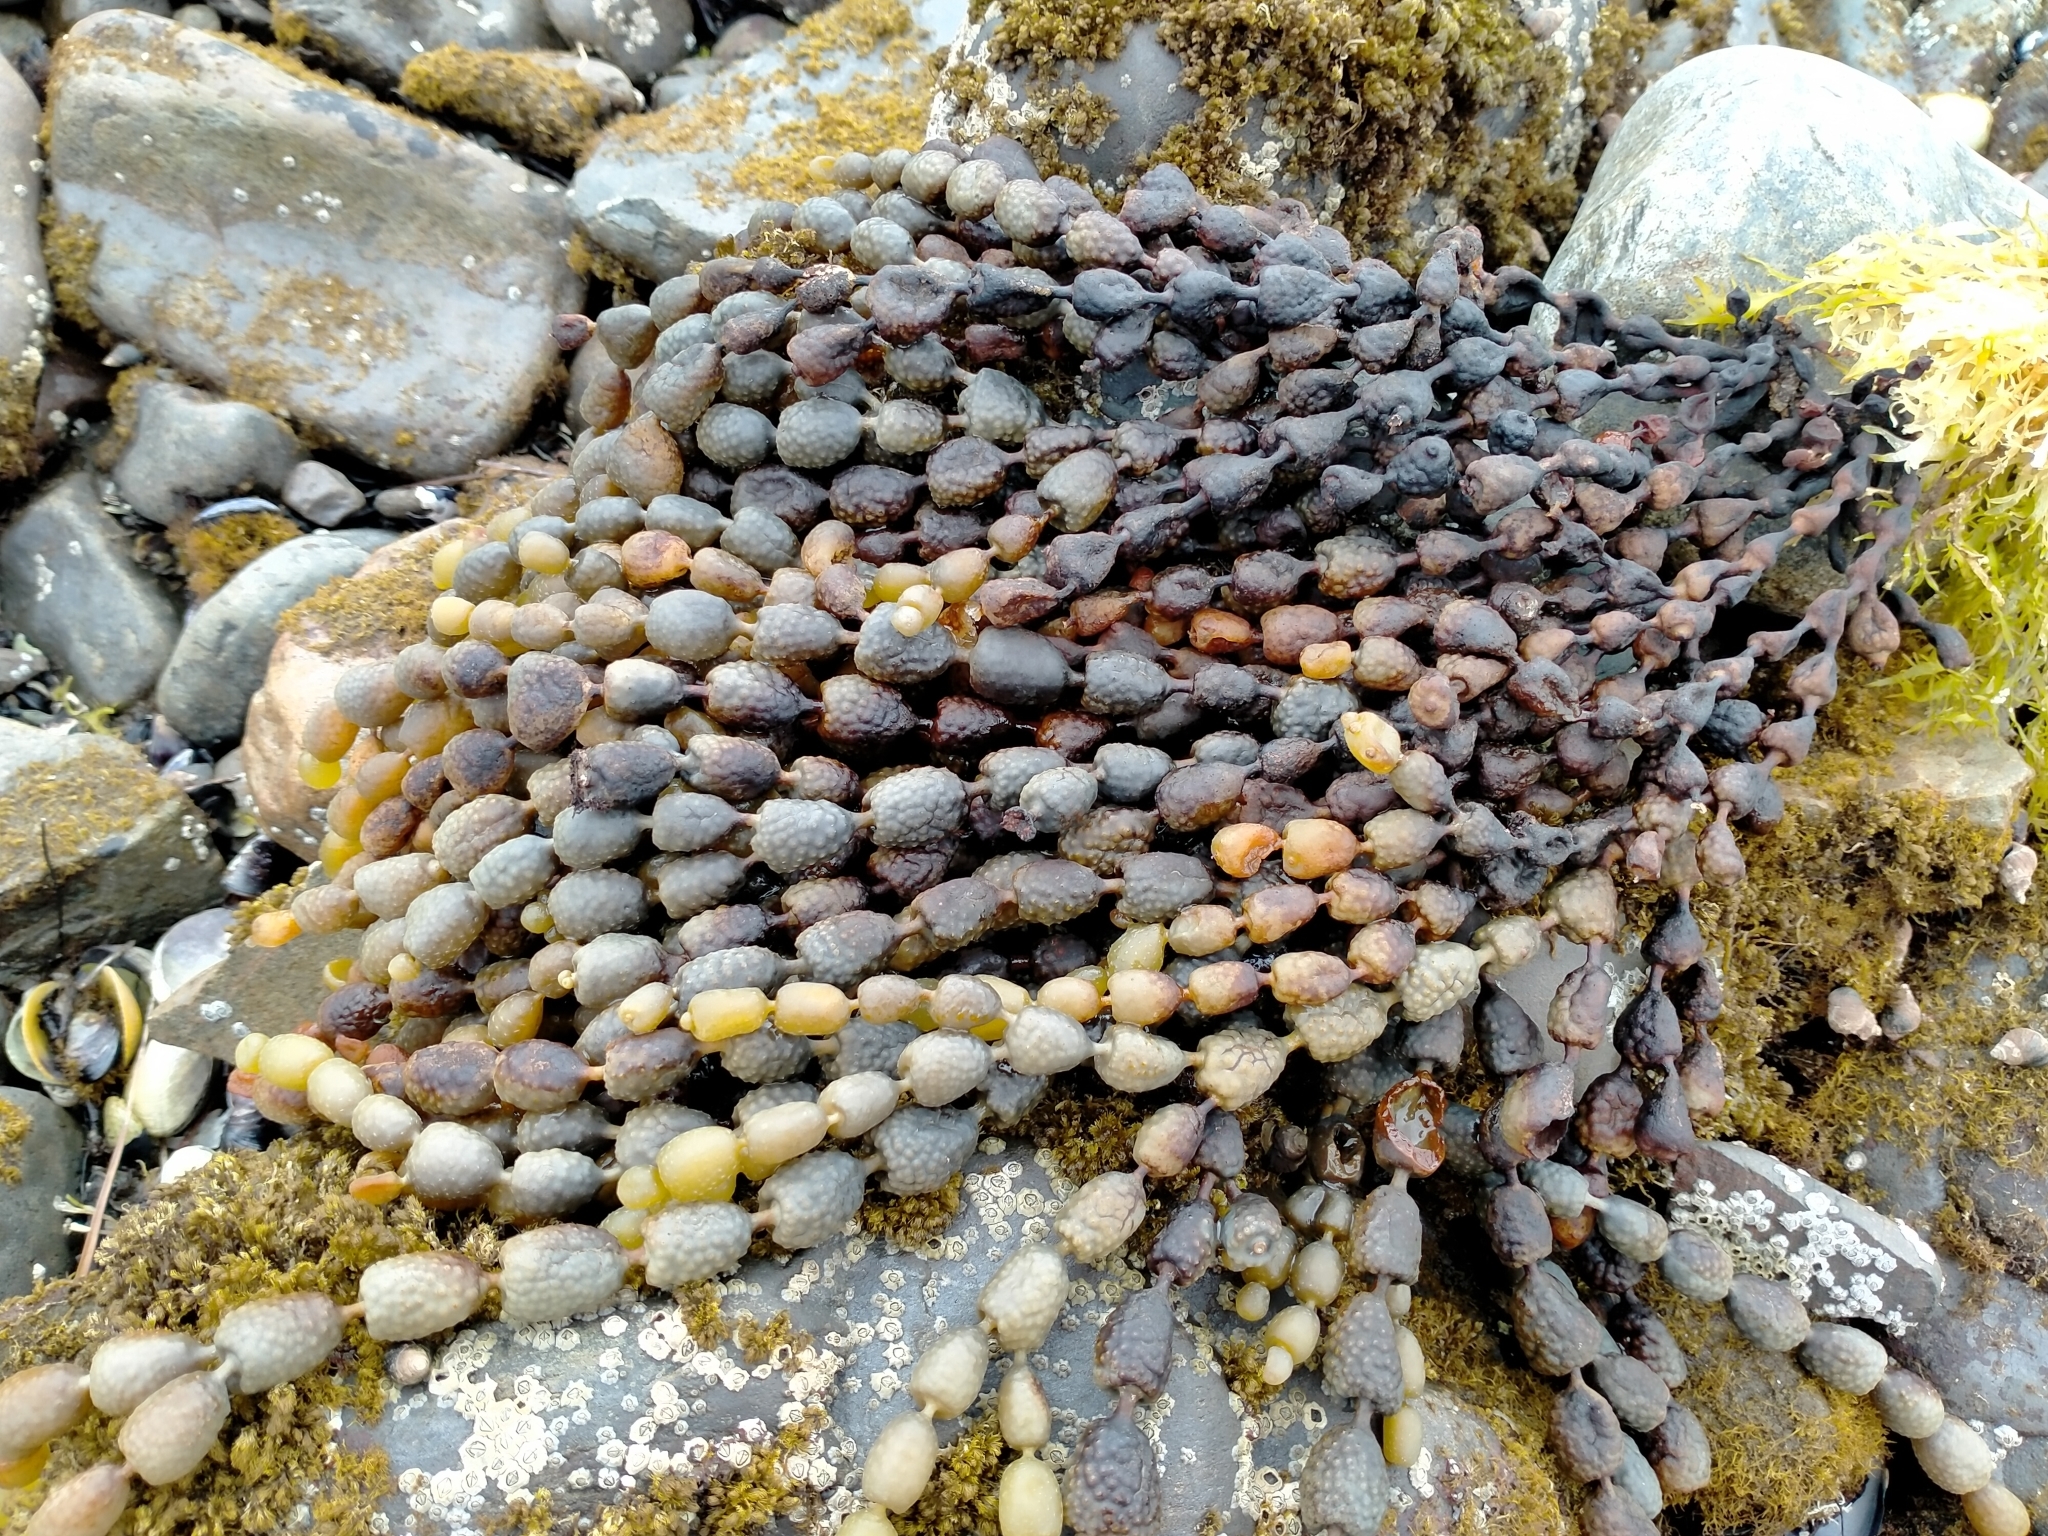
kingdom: Chromista
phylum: Ochrophyta
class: Phaeophyceae
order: Fucales
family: Hormosiraceae
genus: Hormosira
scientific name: Hormosira banksii
